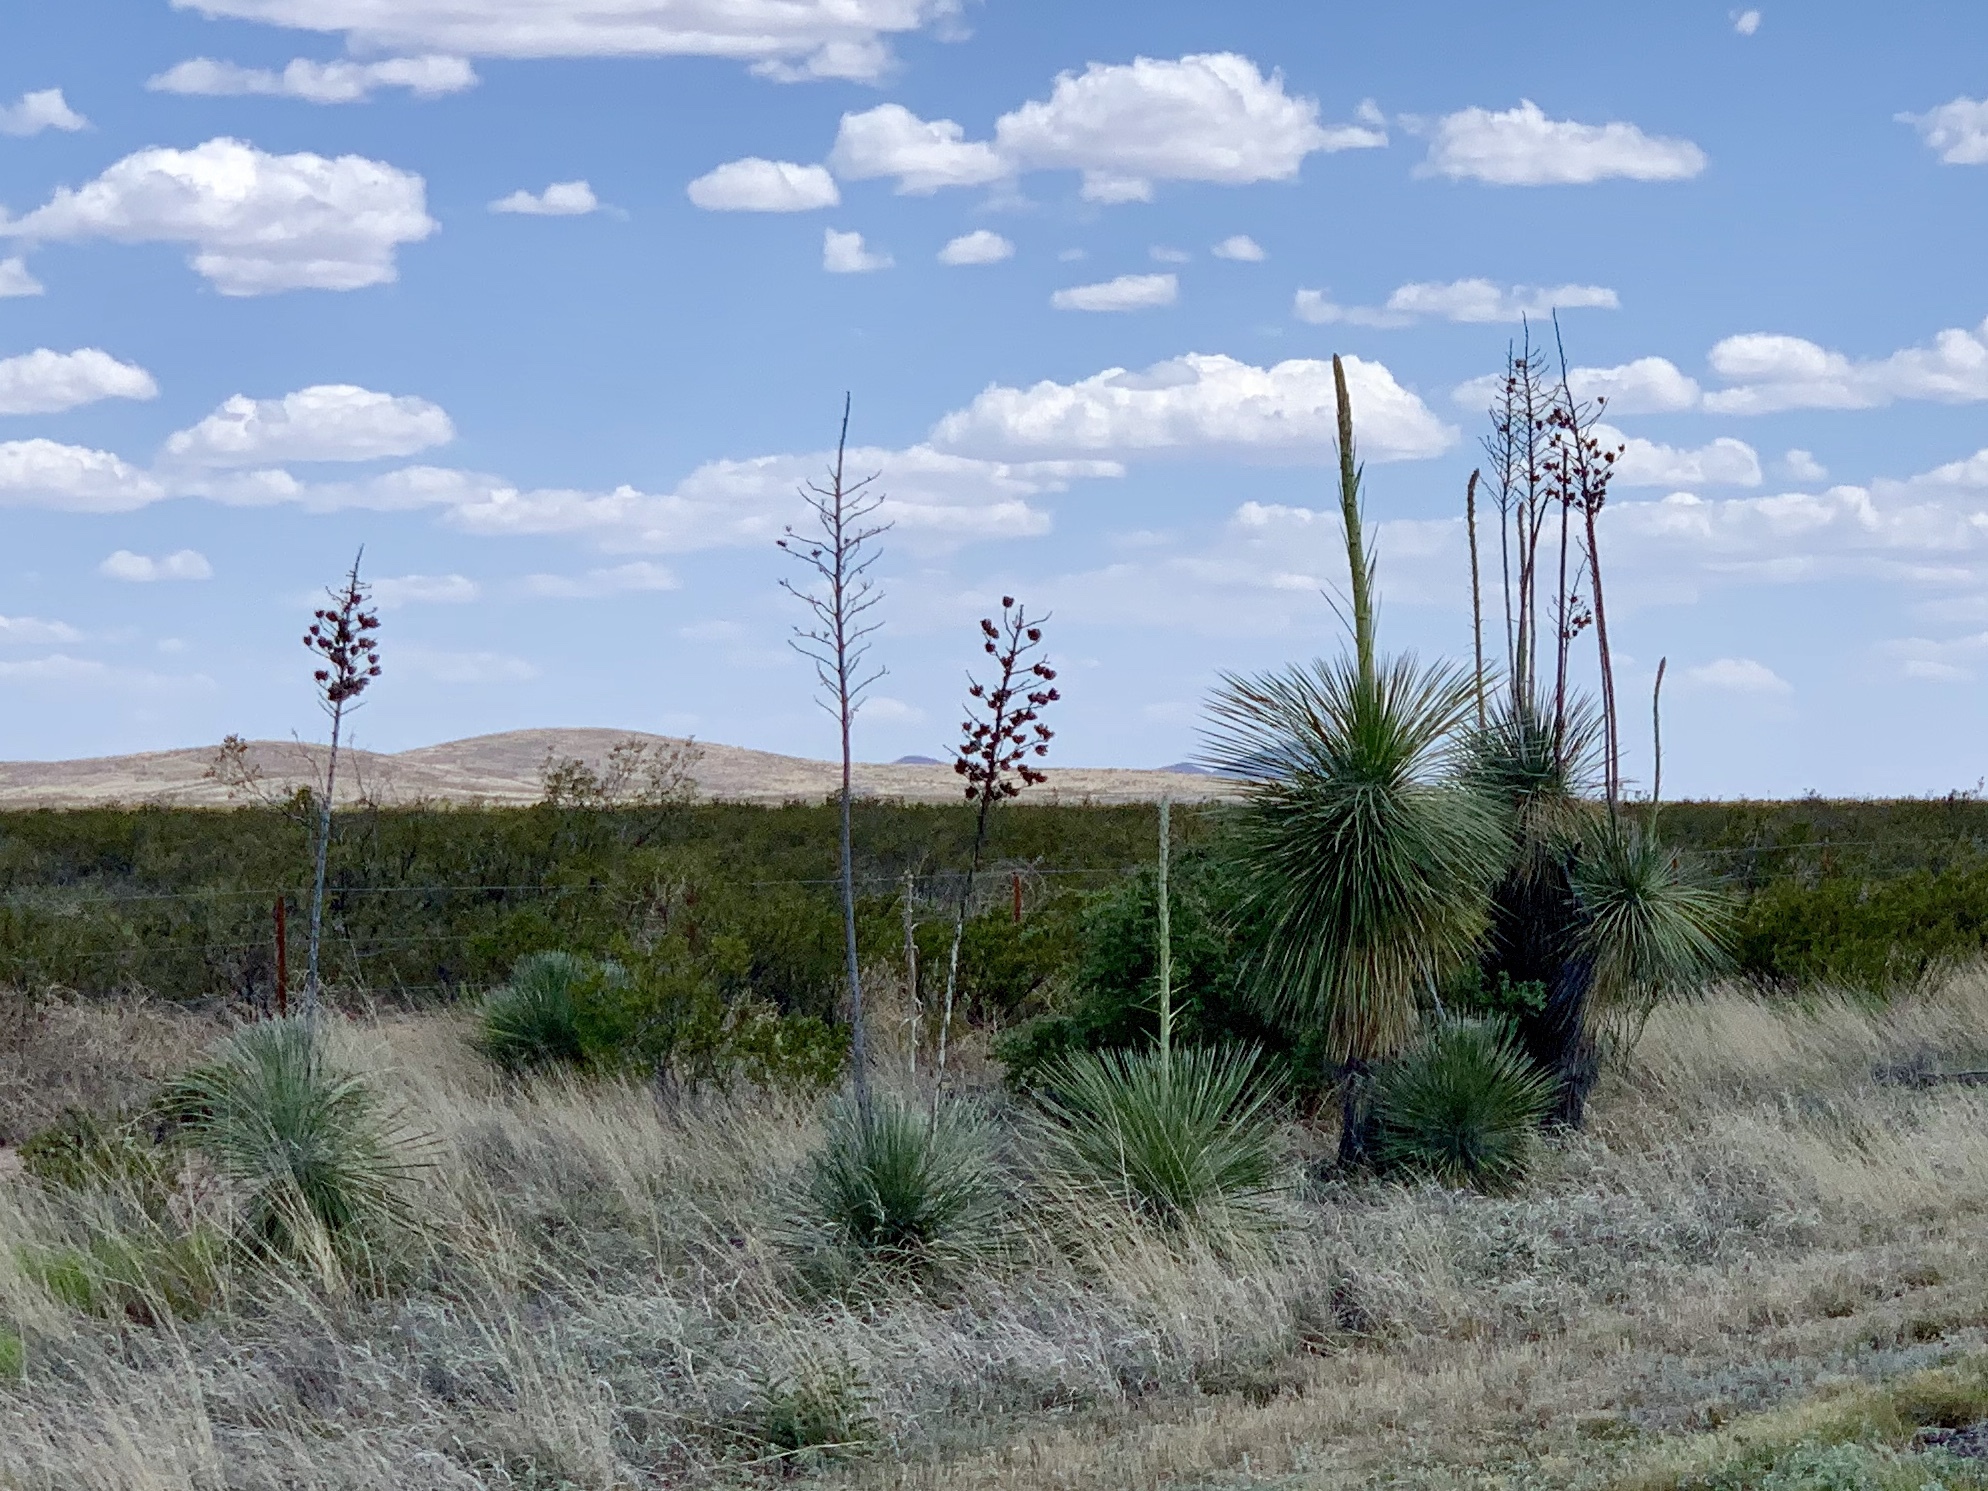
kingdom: Plantae
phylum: Tracheophyta
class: Liliopsida
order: Asparagales
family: Asparagaceae
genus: Yucca
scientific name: Yucca elata
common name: Palmella
